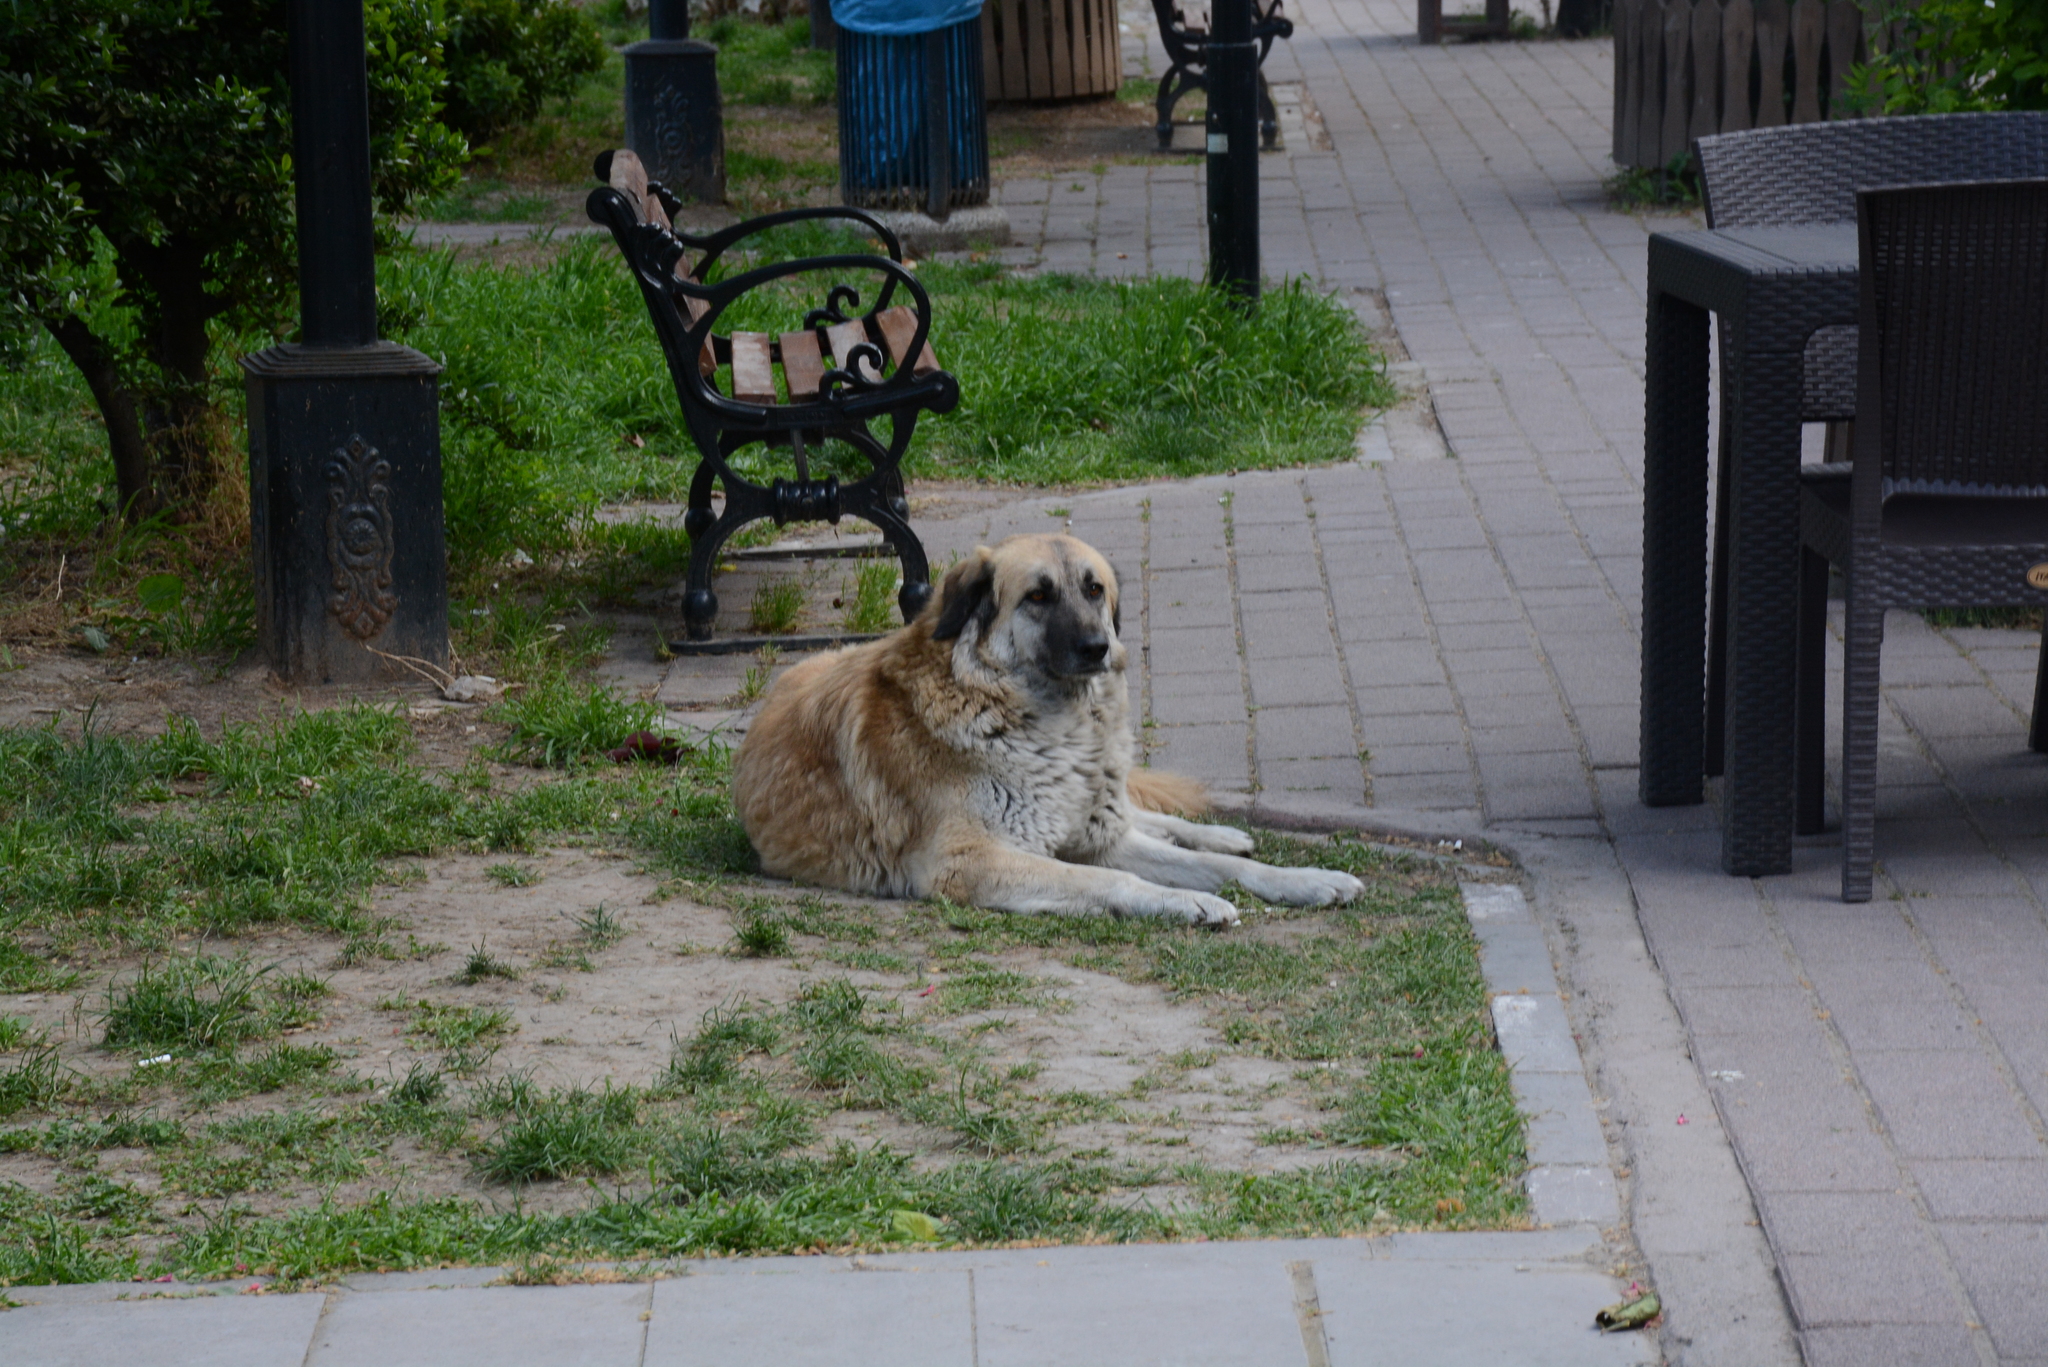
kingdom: Animalia
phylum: Chordata
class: Mammalia
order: Carnivora
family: Canidae
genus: Canis
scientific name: Canis lupus
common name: Gray wolf
